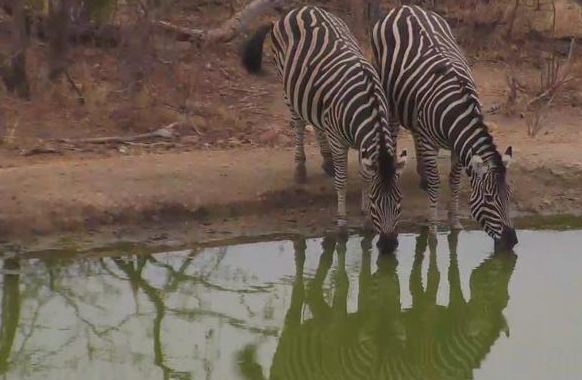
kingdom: Animalia
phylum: Chordata
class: Mammalia
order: Perissodactyla
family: Equidae
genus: Equus
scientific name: Equus quagga
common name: Plains zebra
